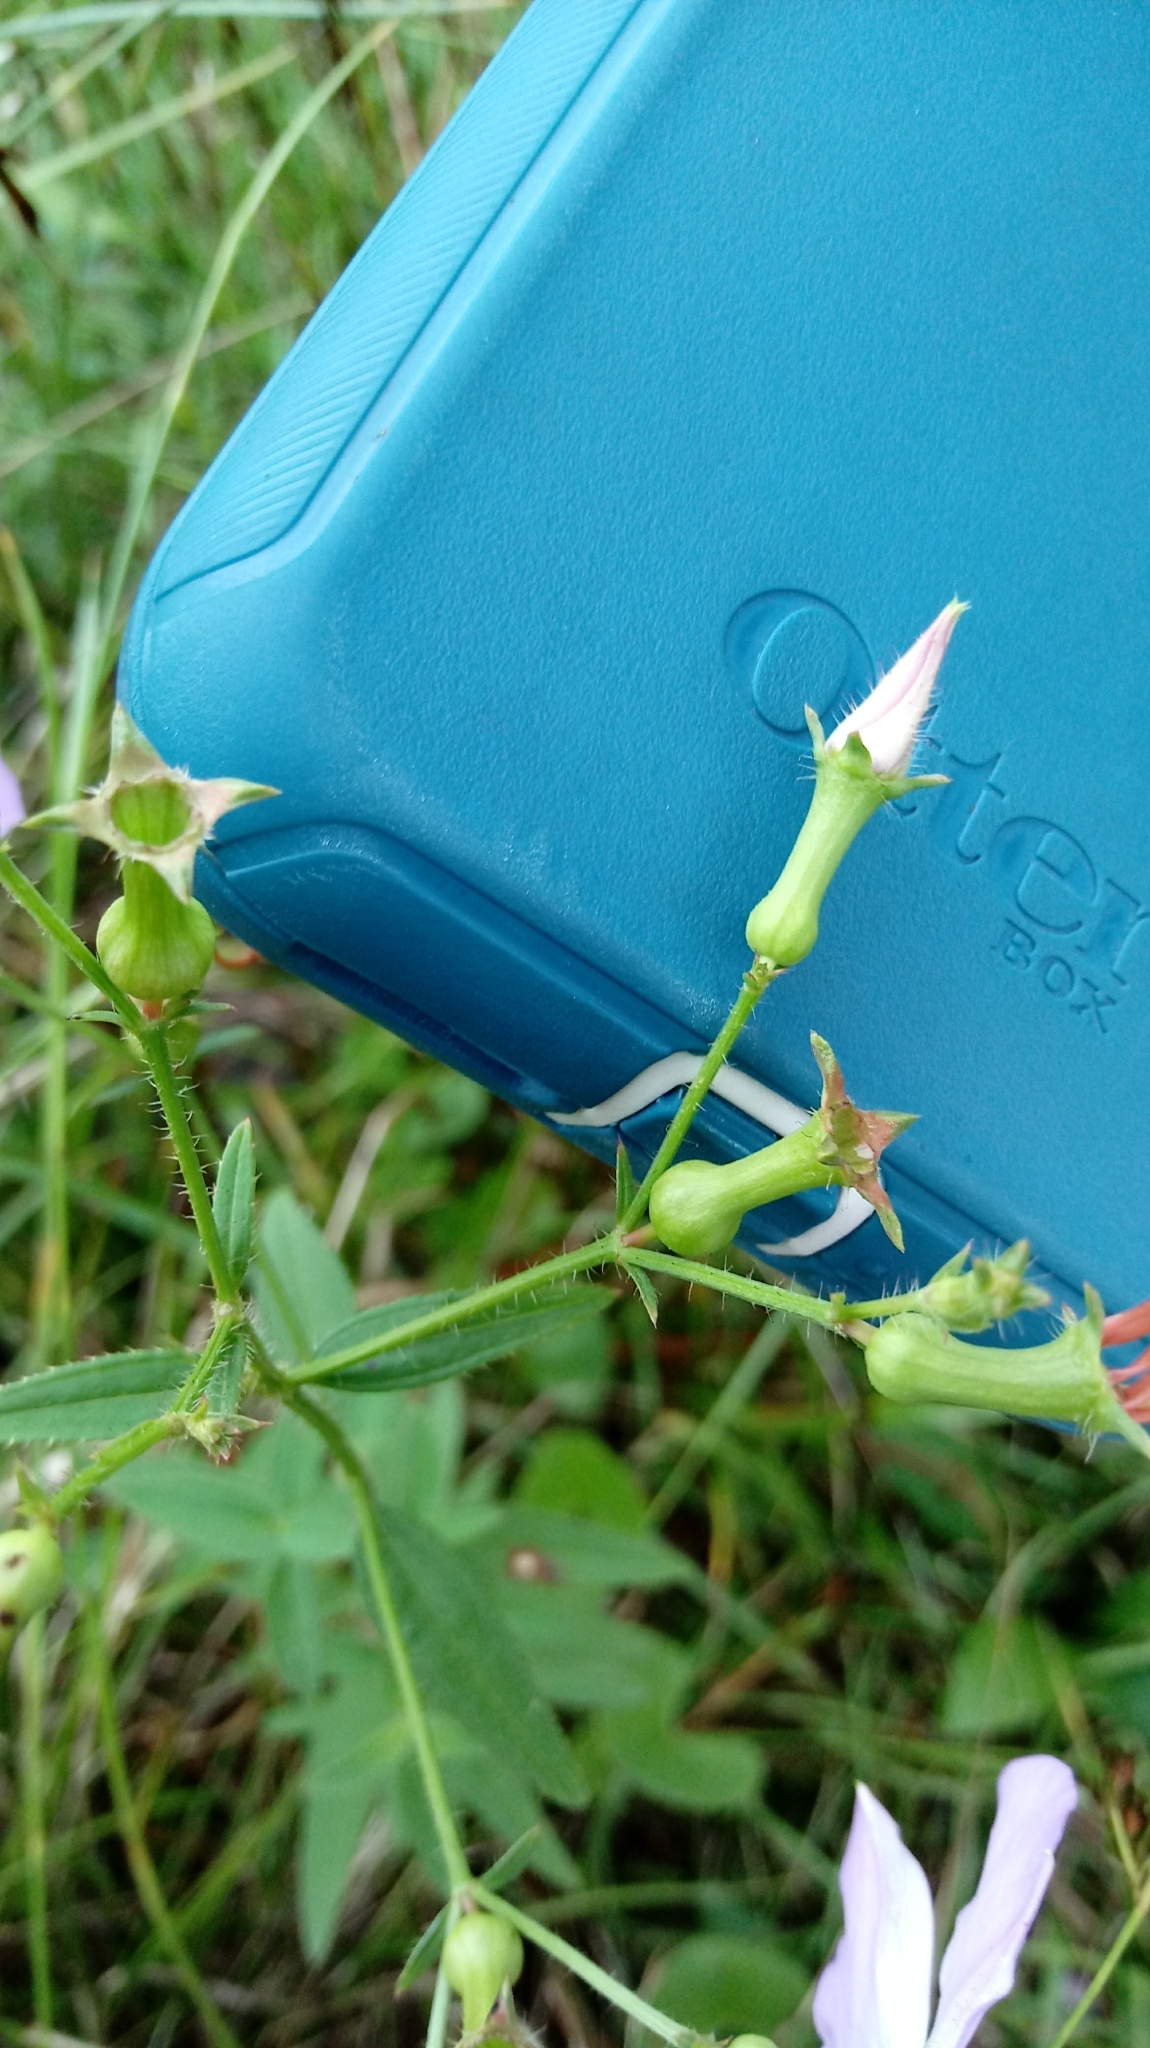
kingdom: Plantae
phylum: Tracheophyta
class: Magnoliopsida
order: Myrtales
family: Melastomataceae
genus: Rhexia
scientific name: Rhexia nashii
